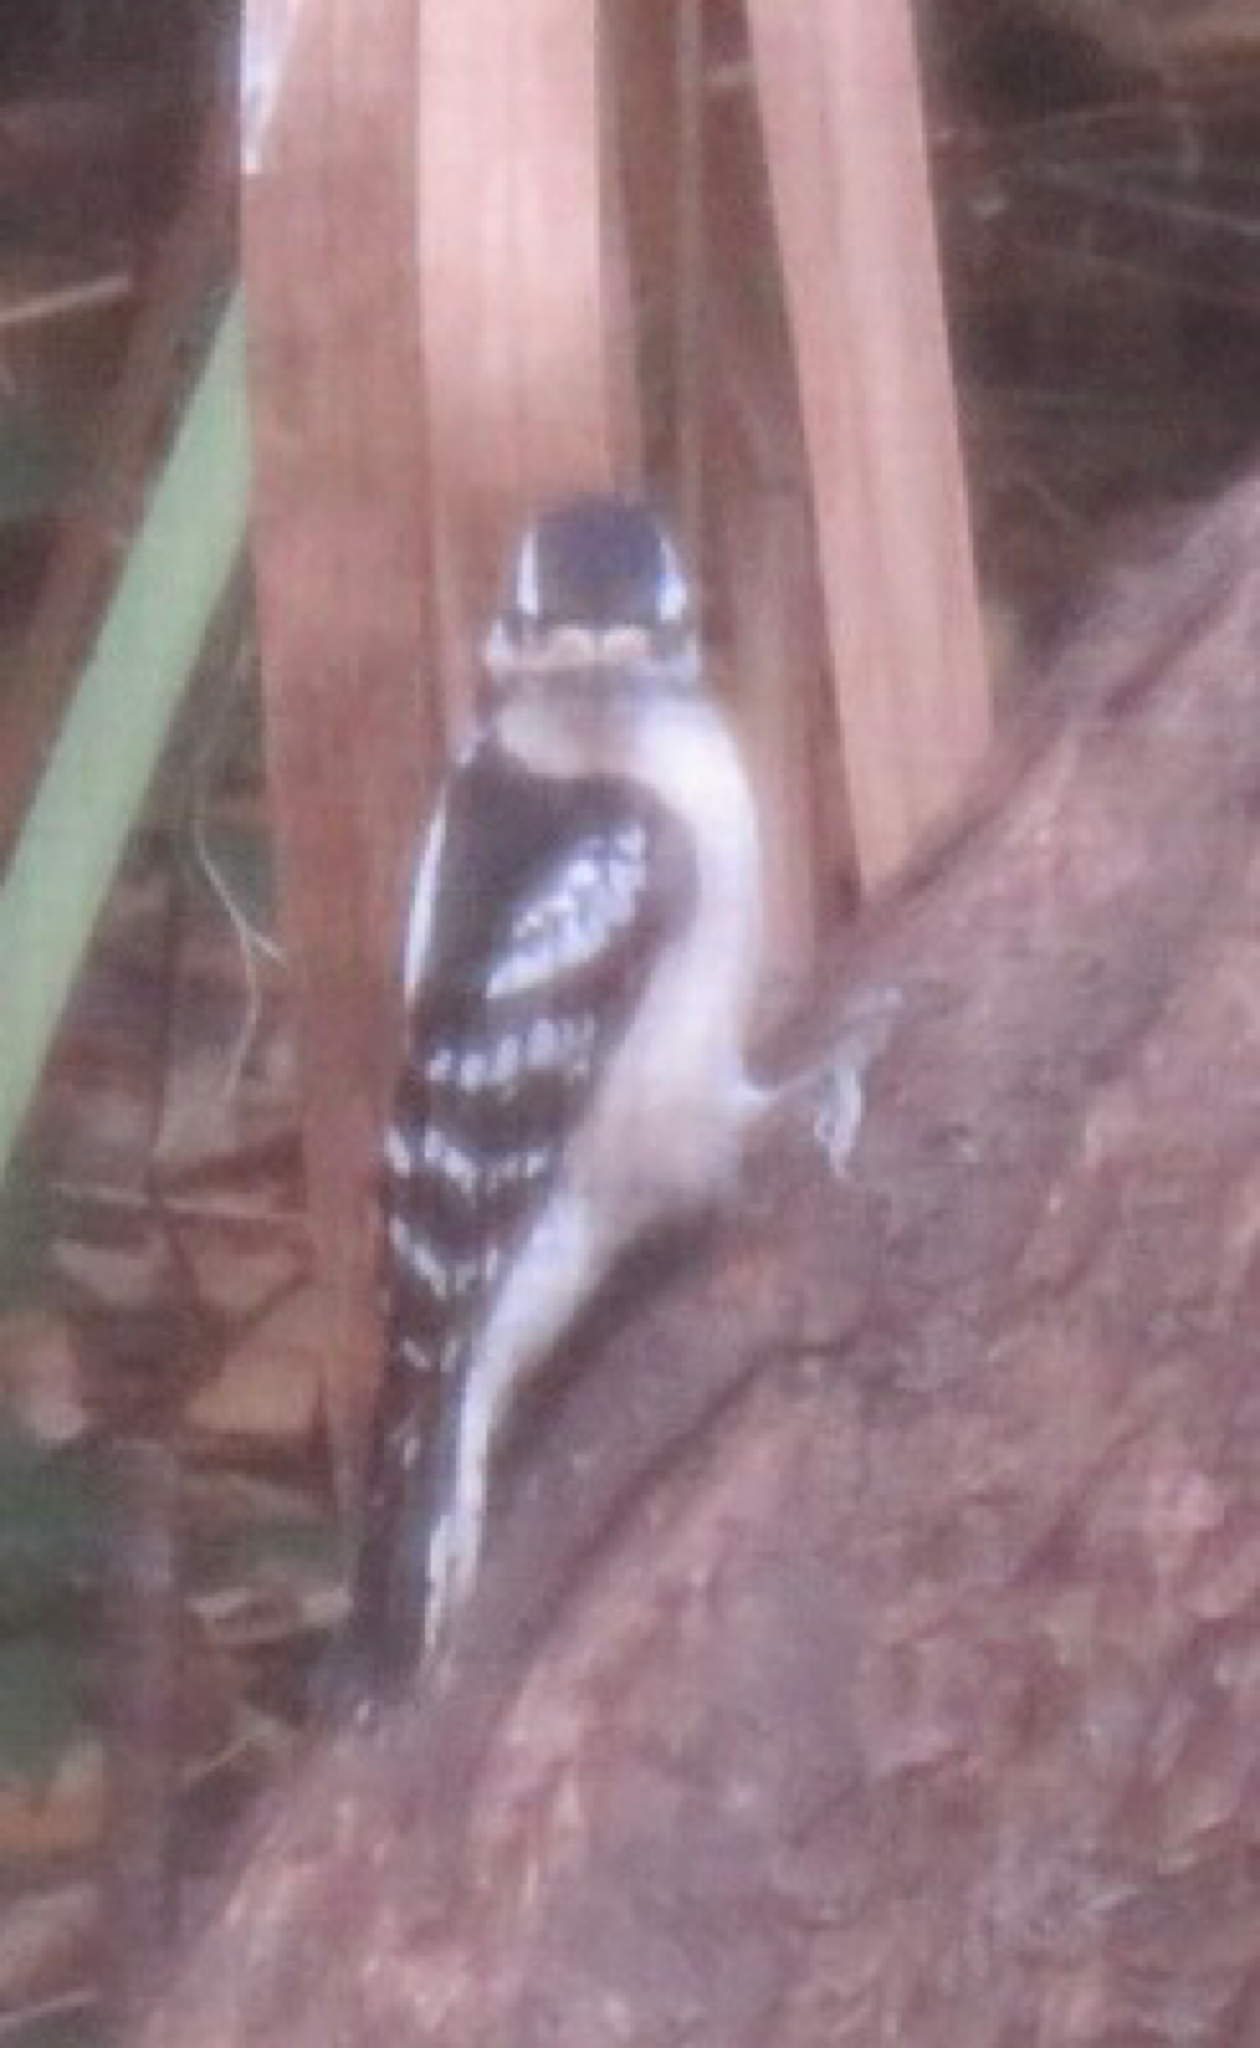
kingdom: Animalia
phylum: Chordata
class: Aves
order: Piciformes
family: Picidae
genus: Dryobates
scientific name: Dryobates pubescens
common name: Downy woodpecker
